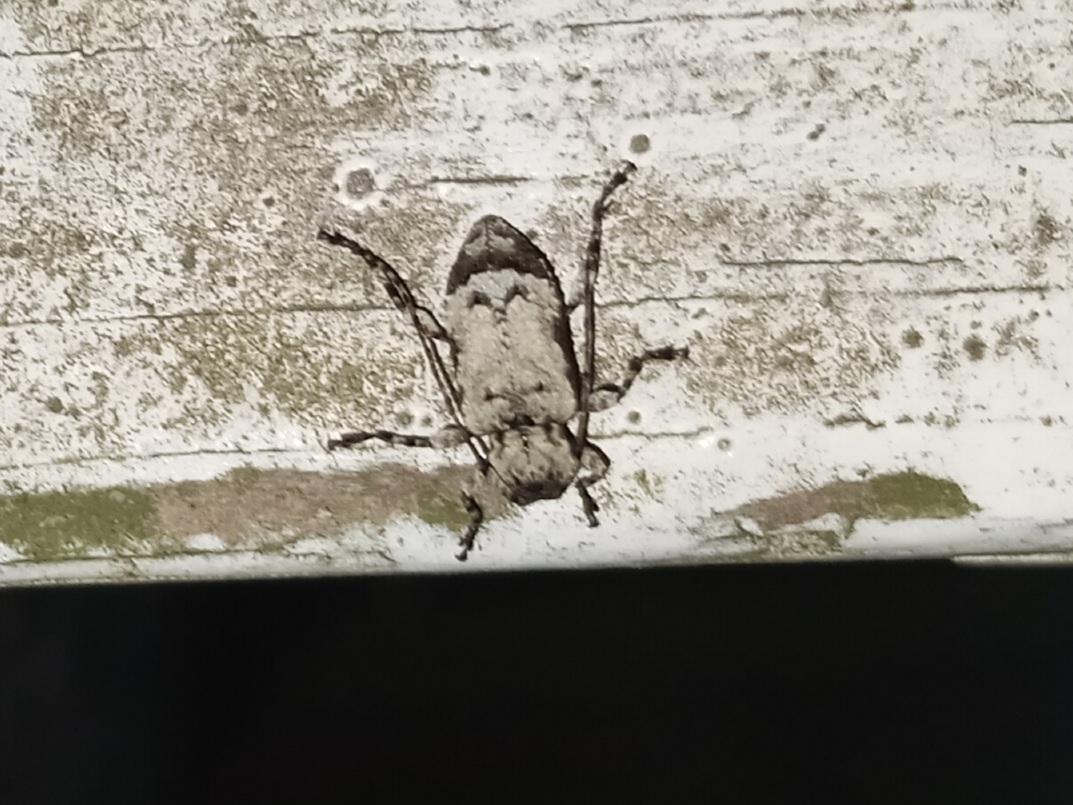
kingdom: Animalia
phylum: Arthropoda
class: Insecta
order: Coleoptera
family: Cerambycidae
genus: Leptostylus
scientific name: Leptostylus asperatus
